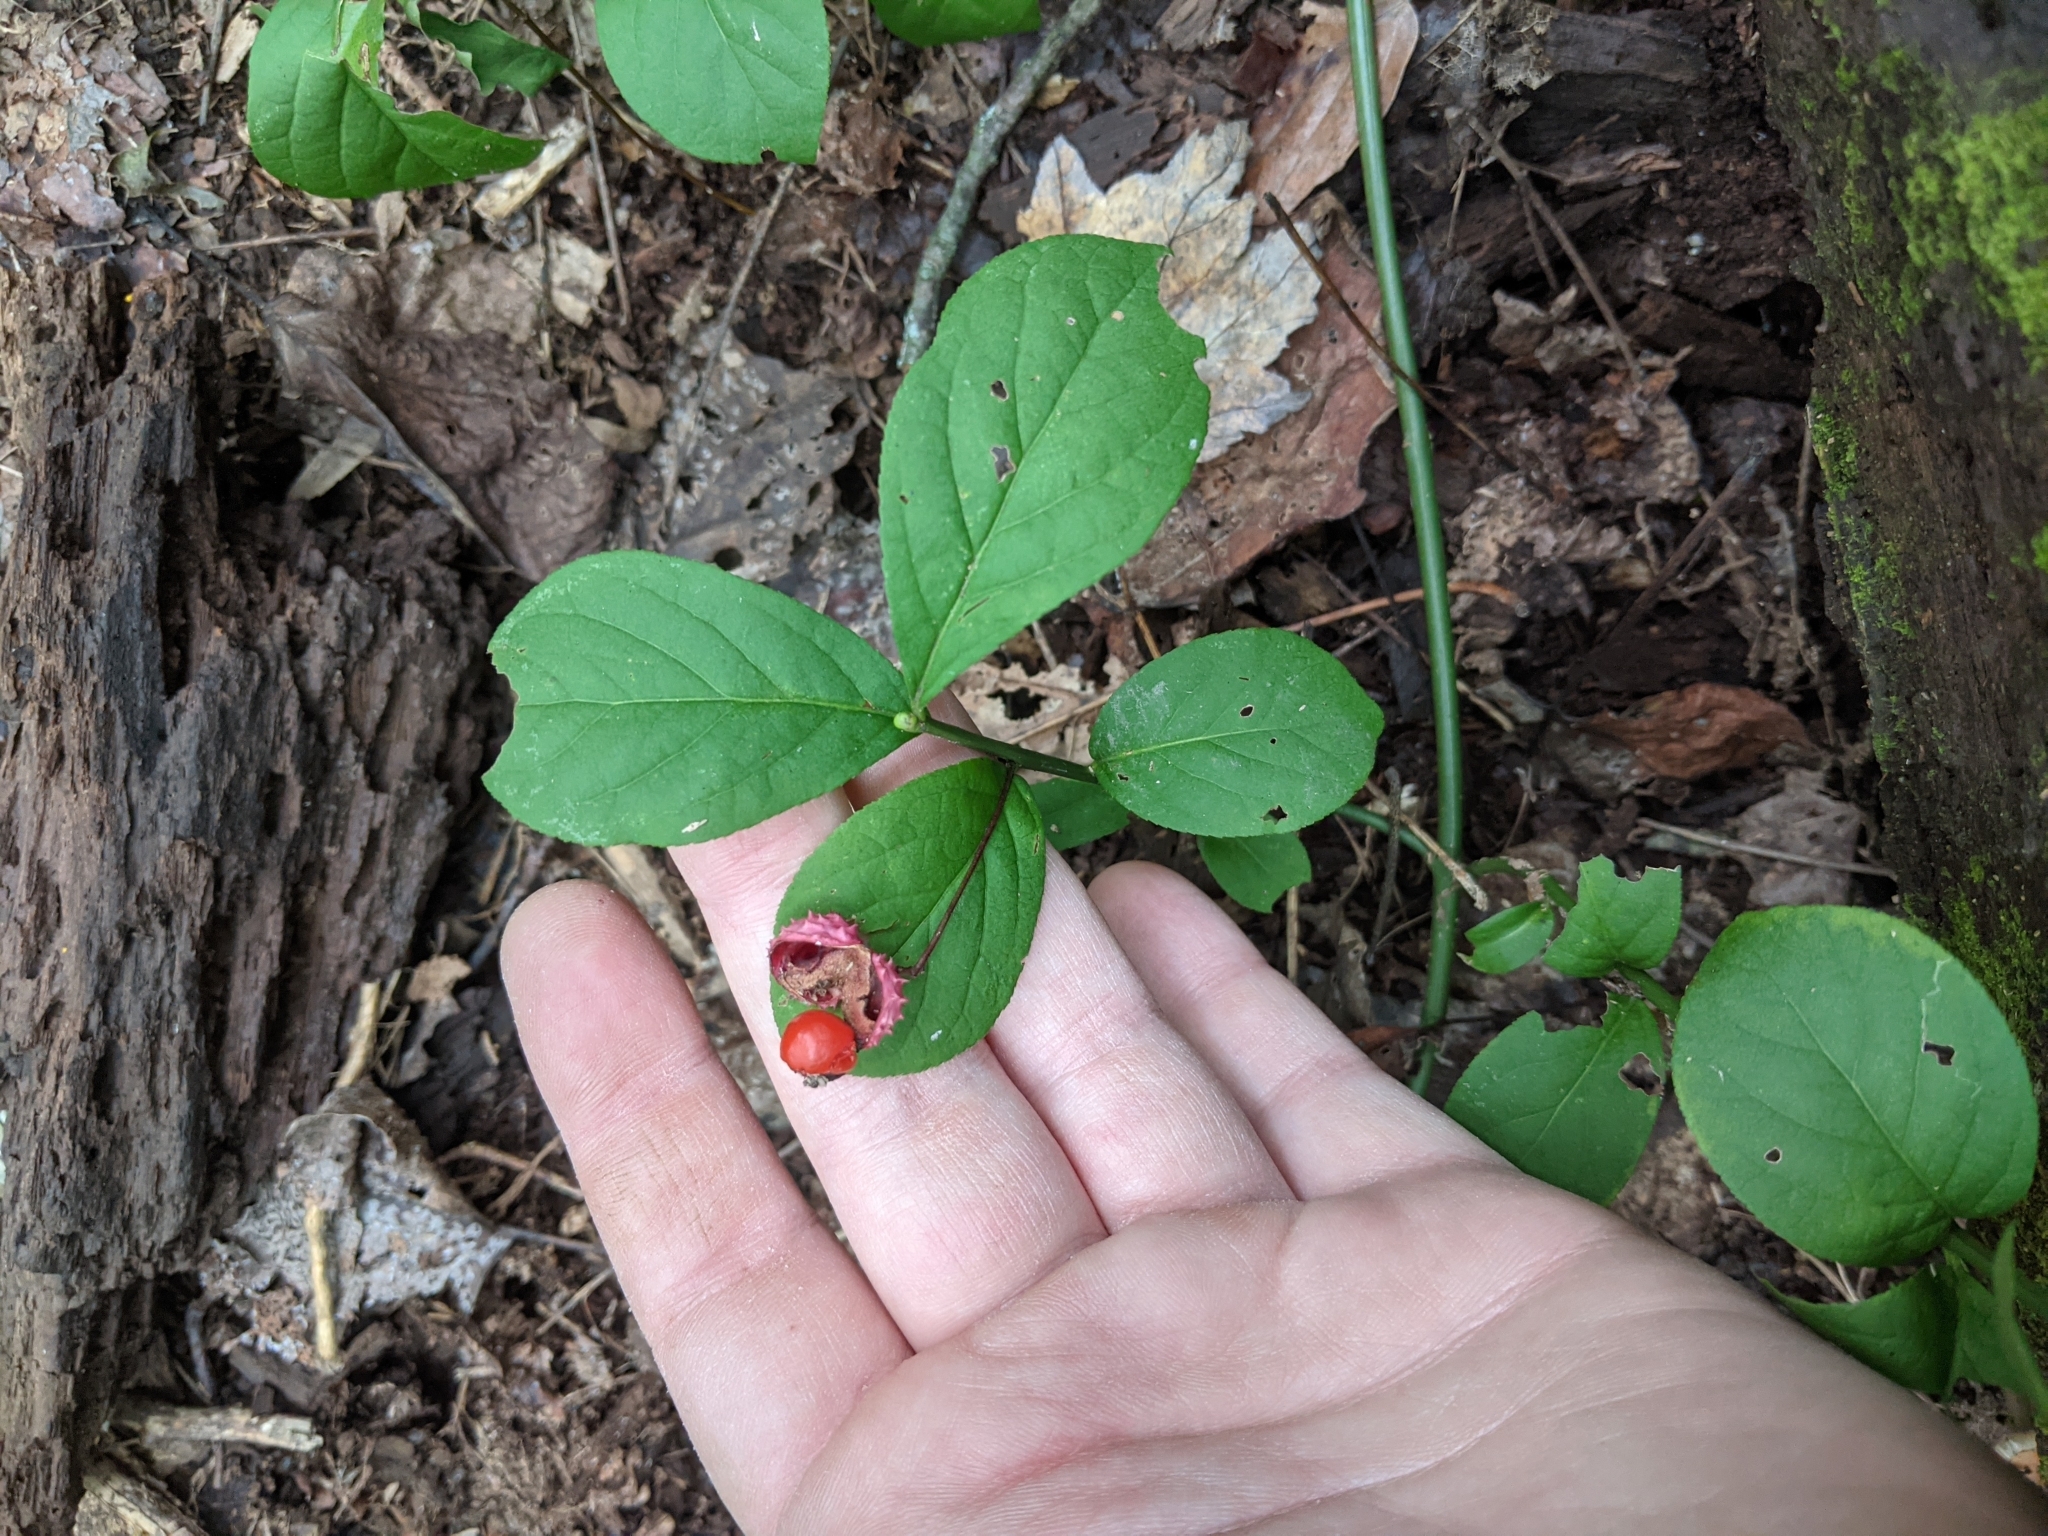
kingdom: Plantae
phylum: Tracheophyta
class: Magnoliopsida
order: Celastrales
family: Celastraceae
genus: Euonymus
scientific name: Euonymus obovatus
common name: Running strawberry-bush
